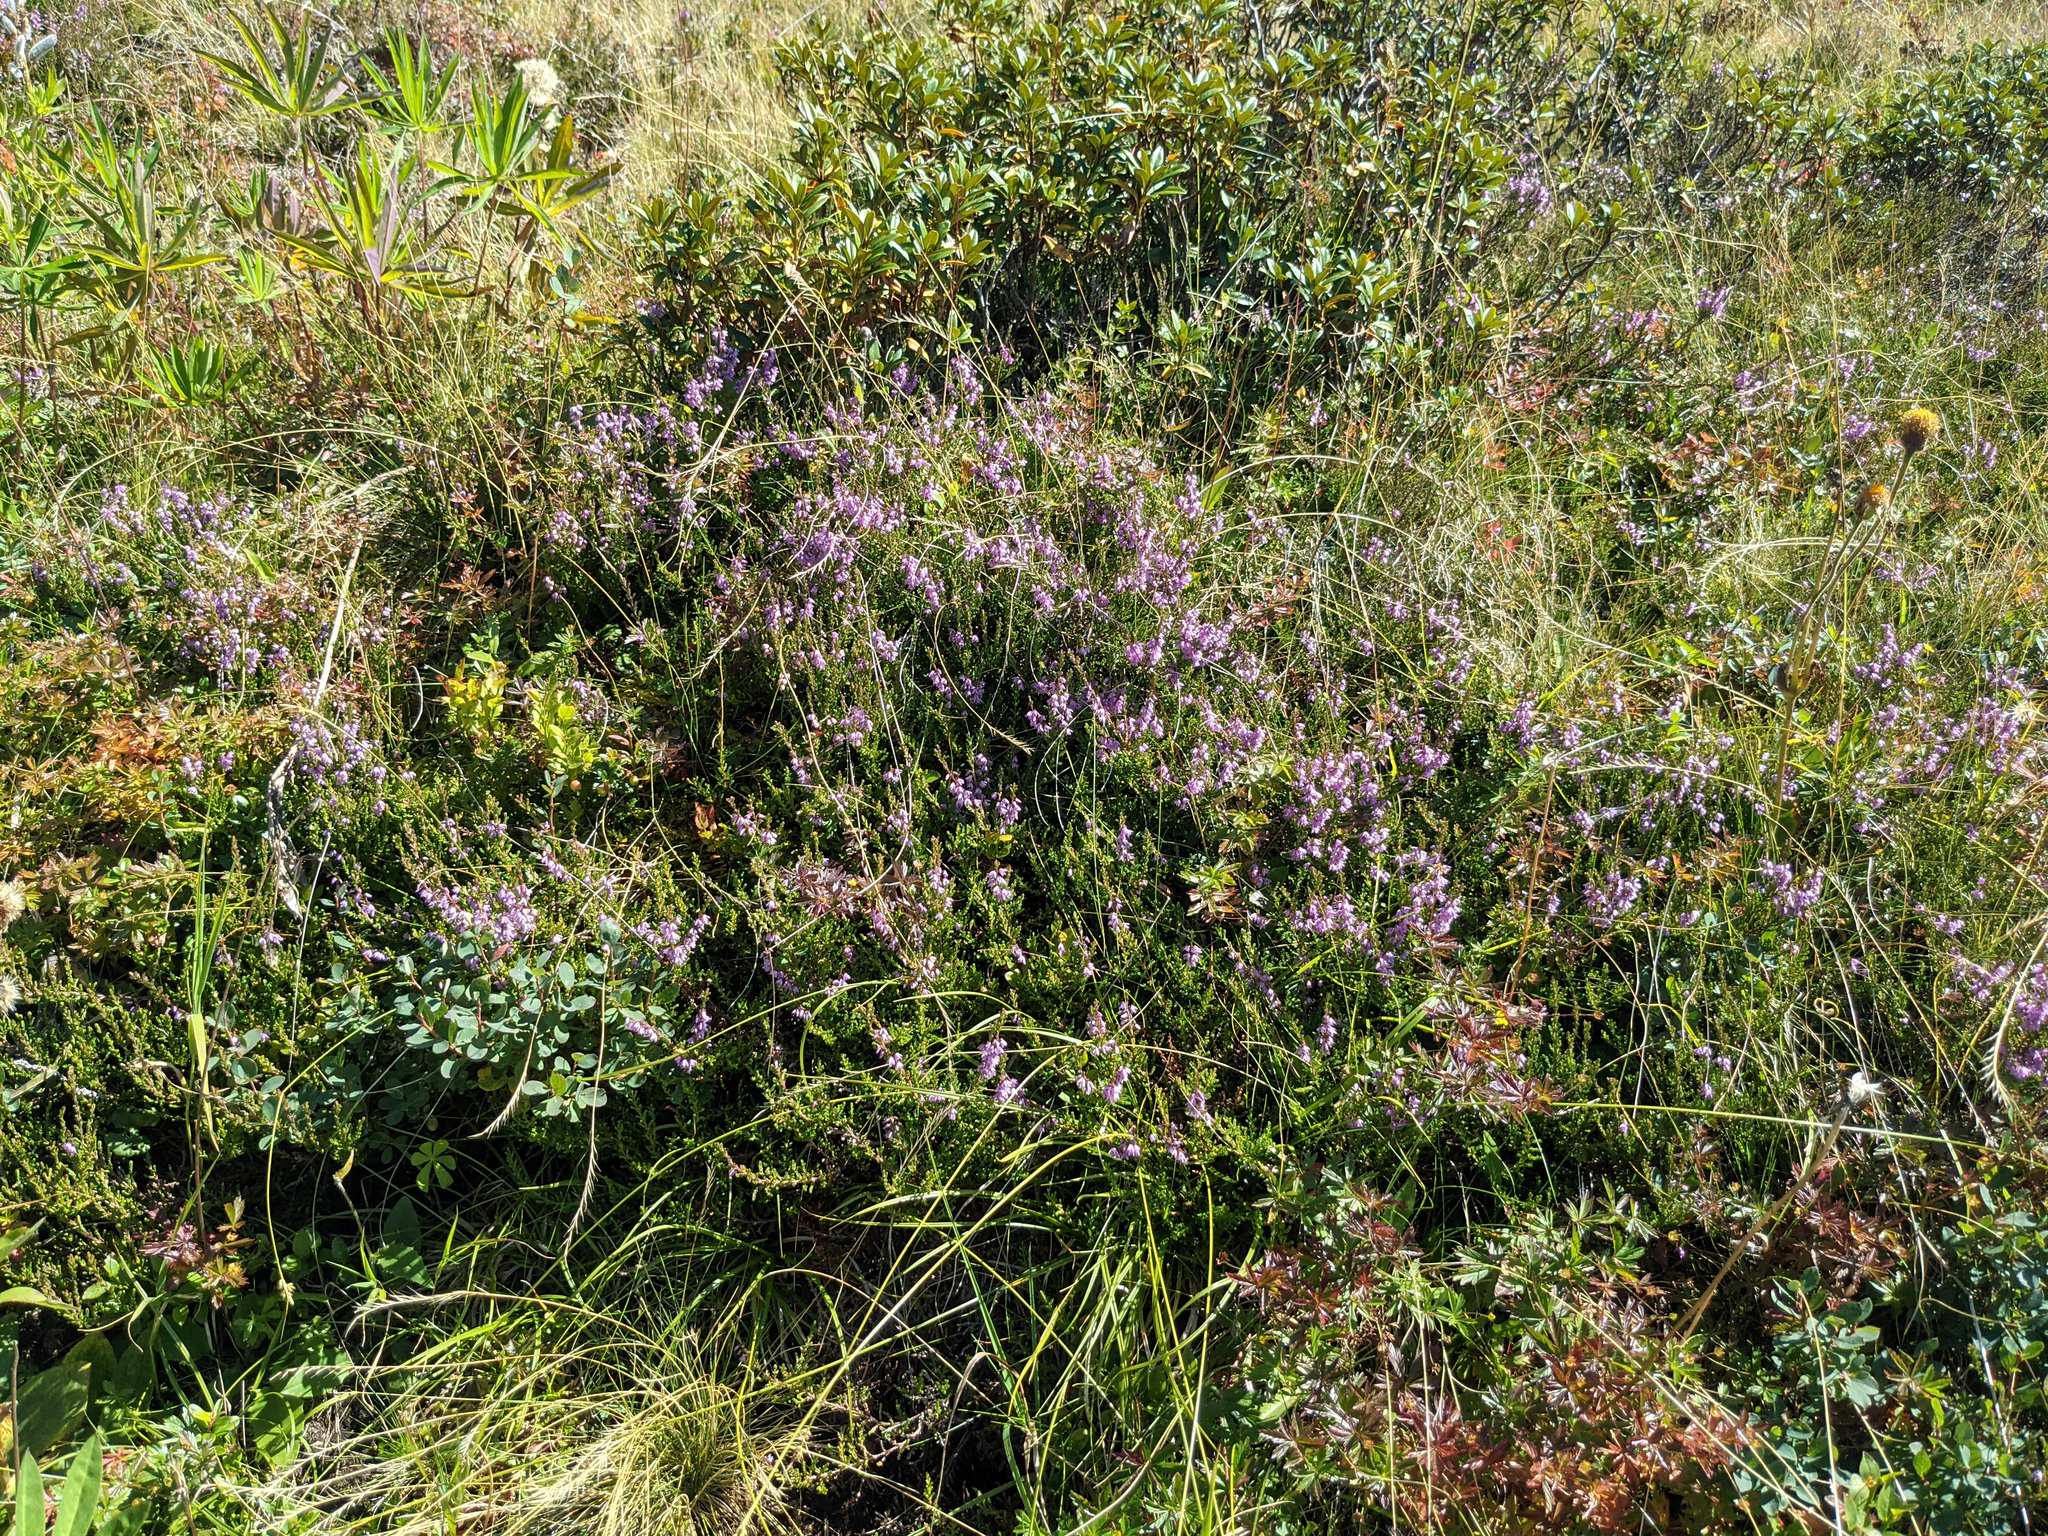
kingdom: Plantae
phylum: Tracheophyta
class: Magnoliopsida
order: Ericales
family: Ericaceae
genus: Calluna
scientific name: Calluna vulgaris
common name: Heather
